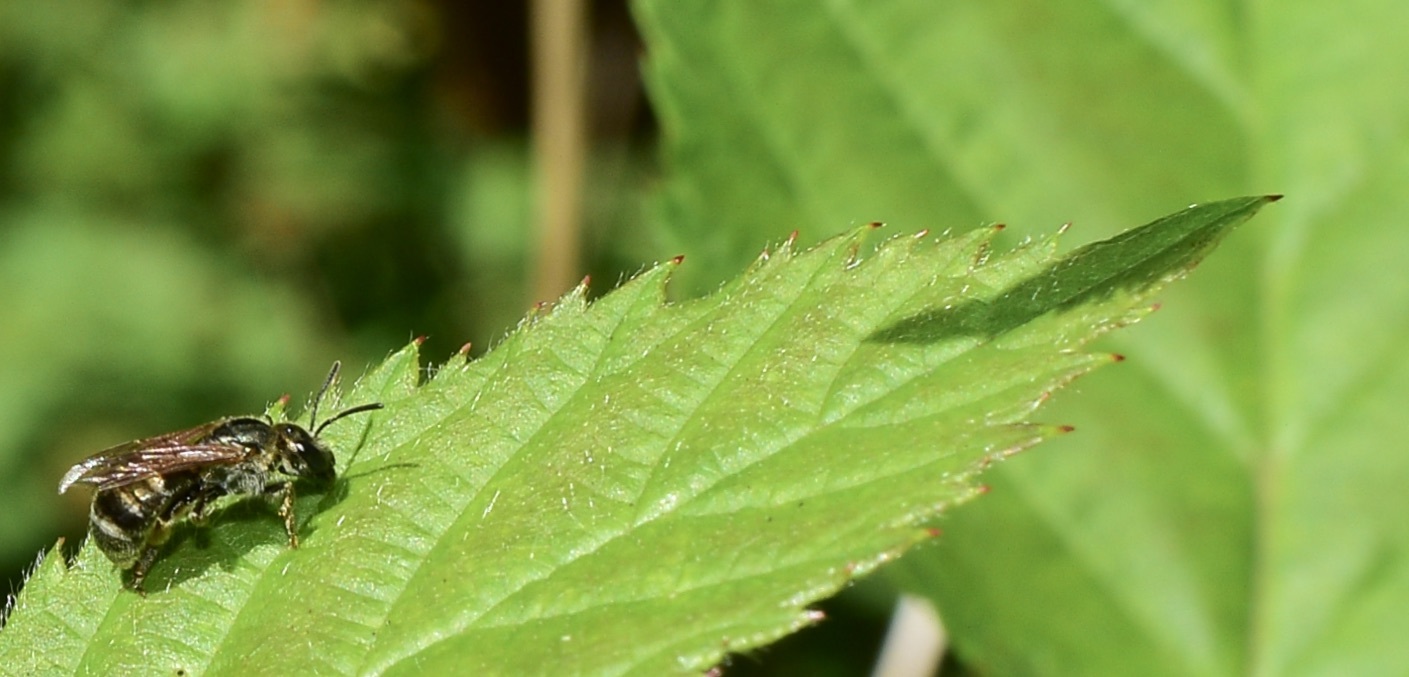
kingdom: Animalia
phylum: Arthropoda
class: Insecta
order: Hymenoptera
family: Halictidae
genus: Halictus
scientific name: Halictus confusus
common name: Southern bronze furrow bee
